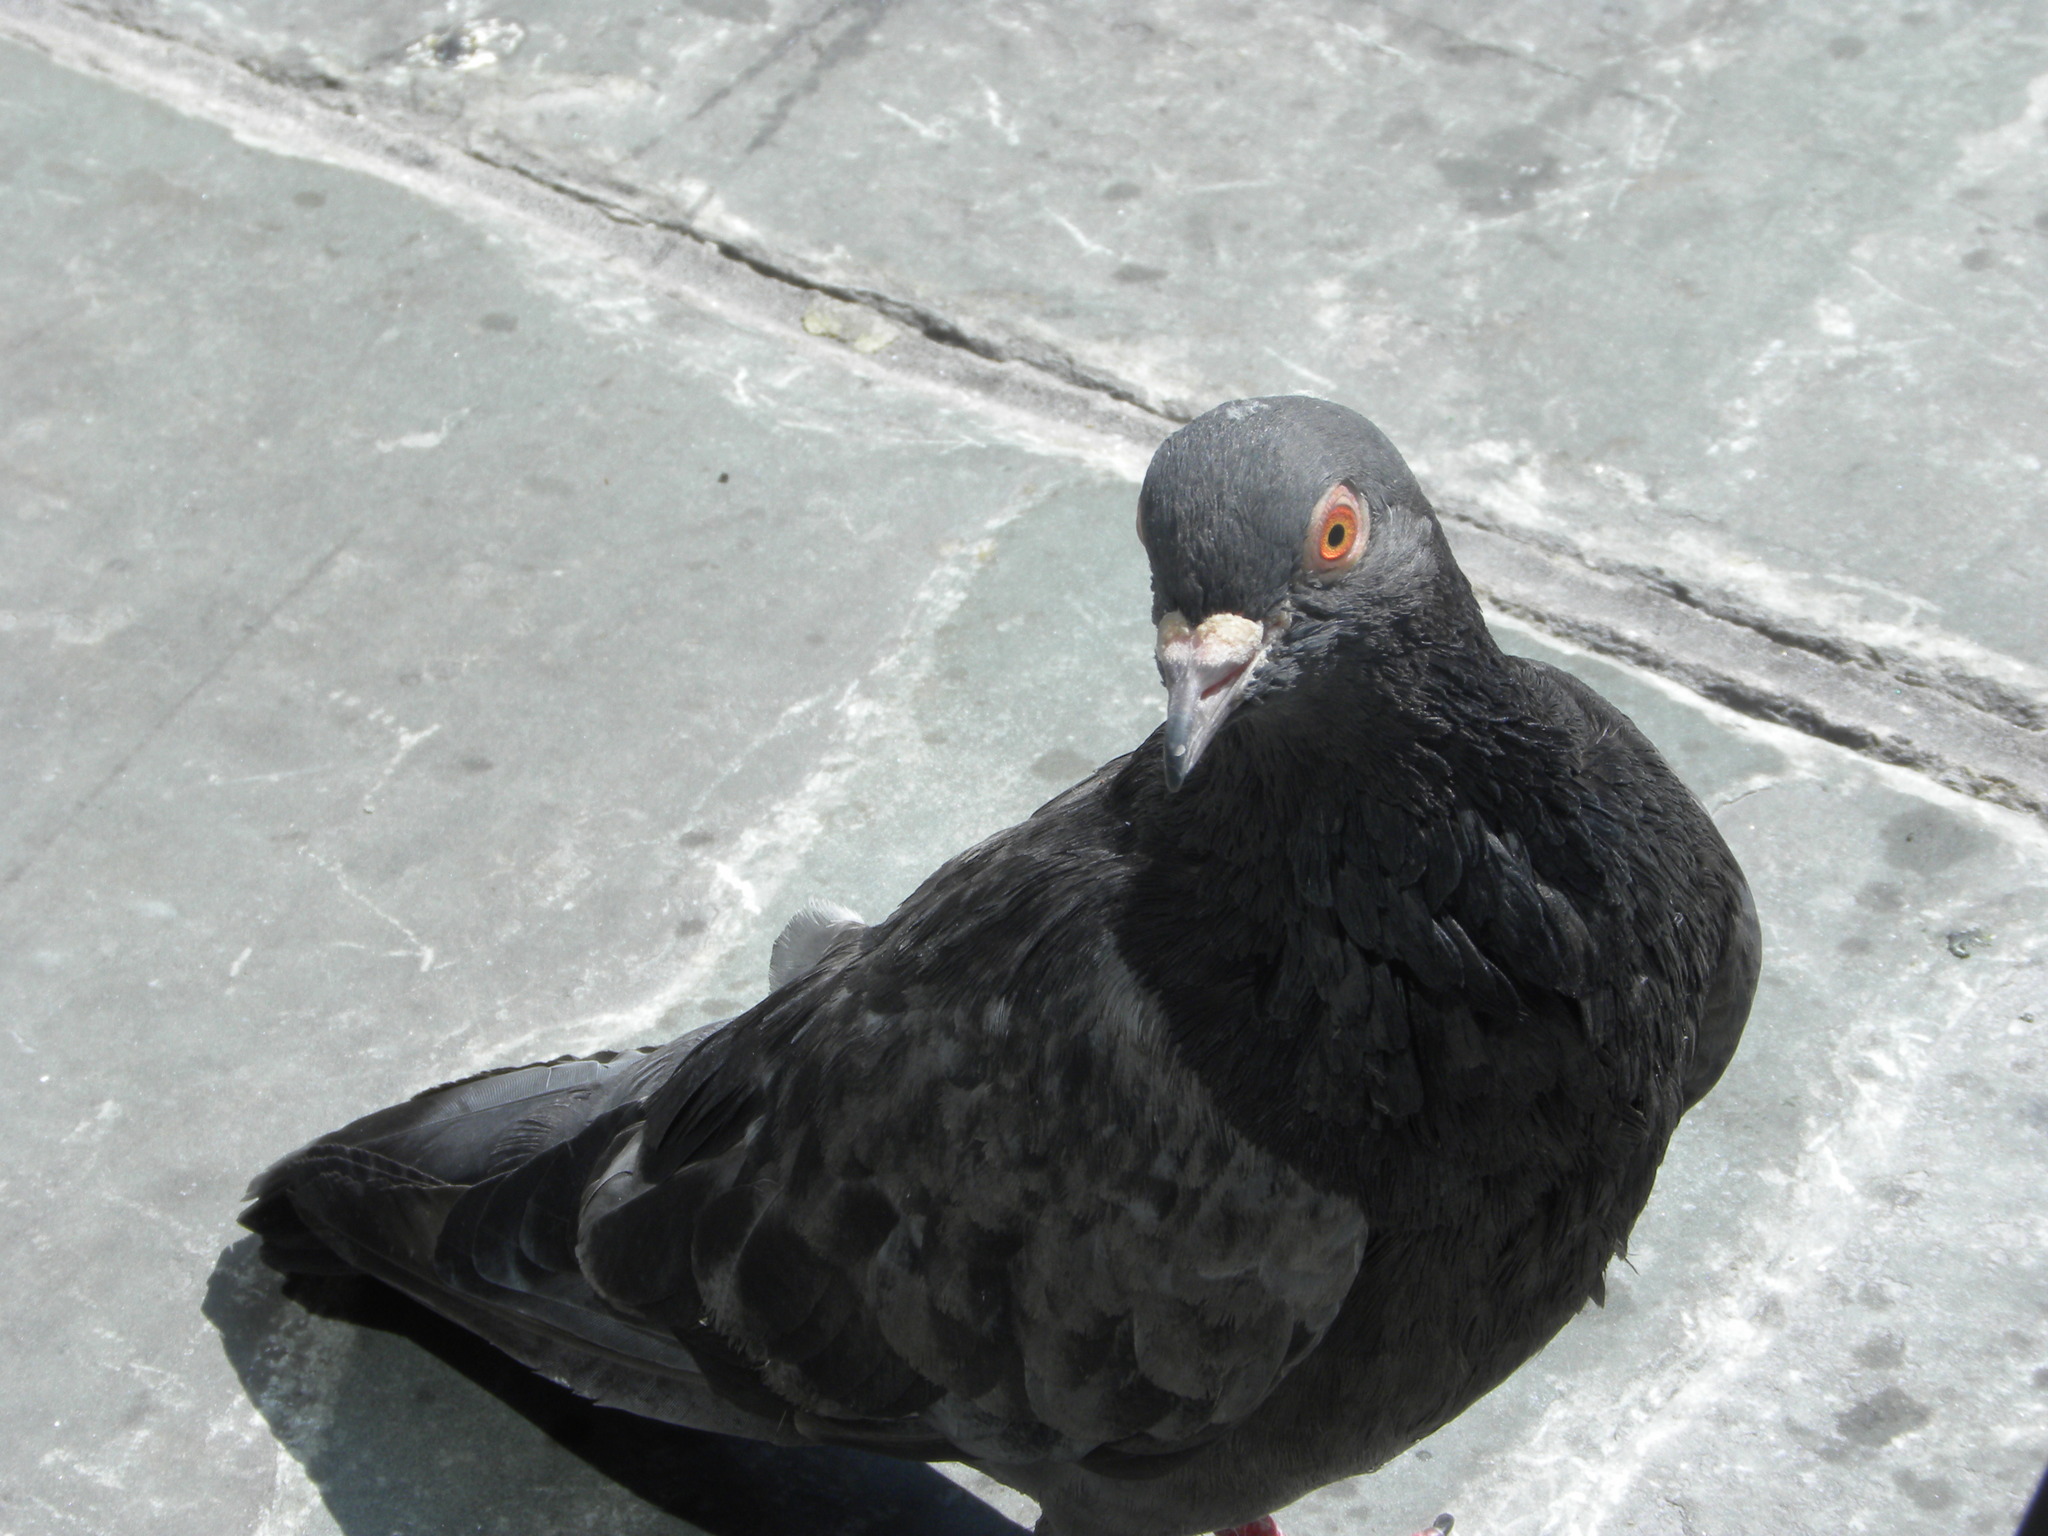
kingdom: Animalia
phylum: Chordata
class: Aves
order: Columbiformes
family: Columbidae
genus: Columba
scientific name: Columba livia
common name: Rock pigeon
